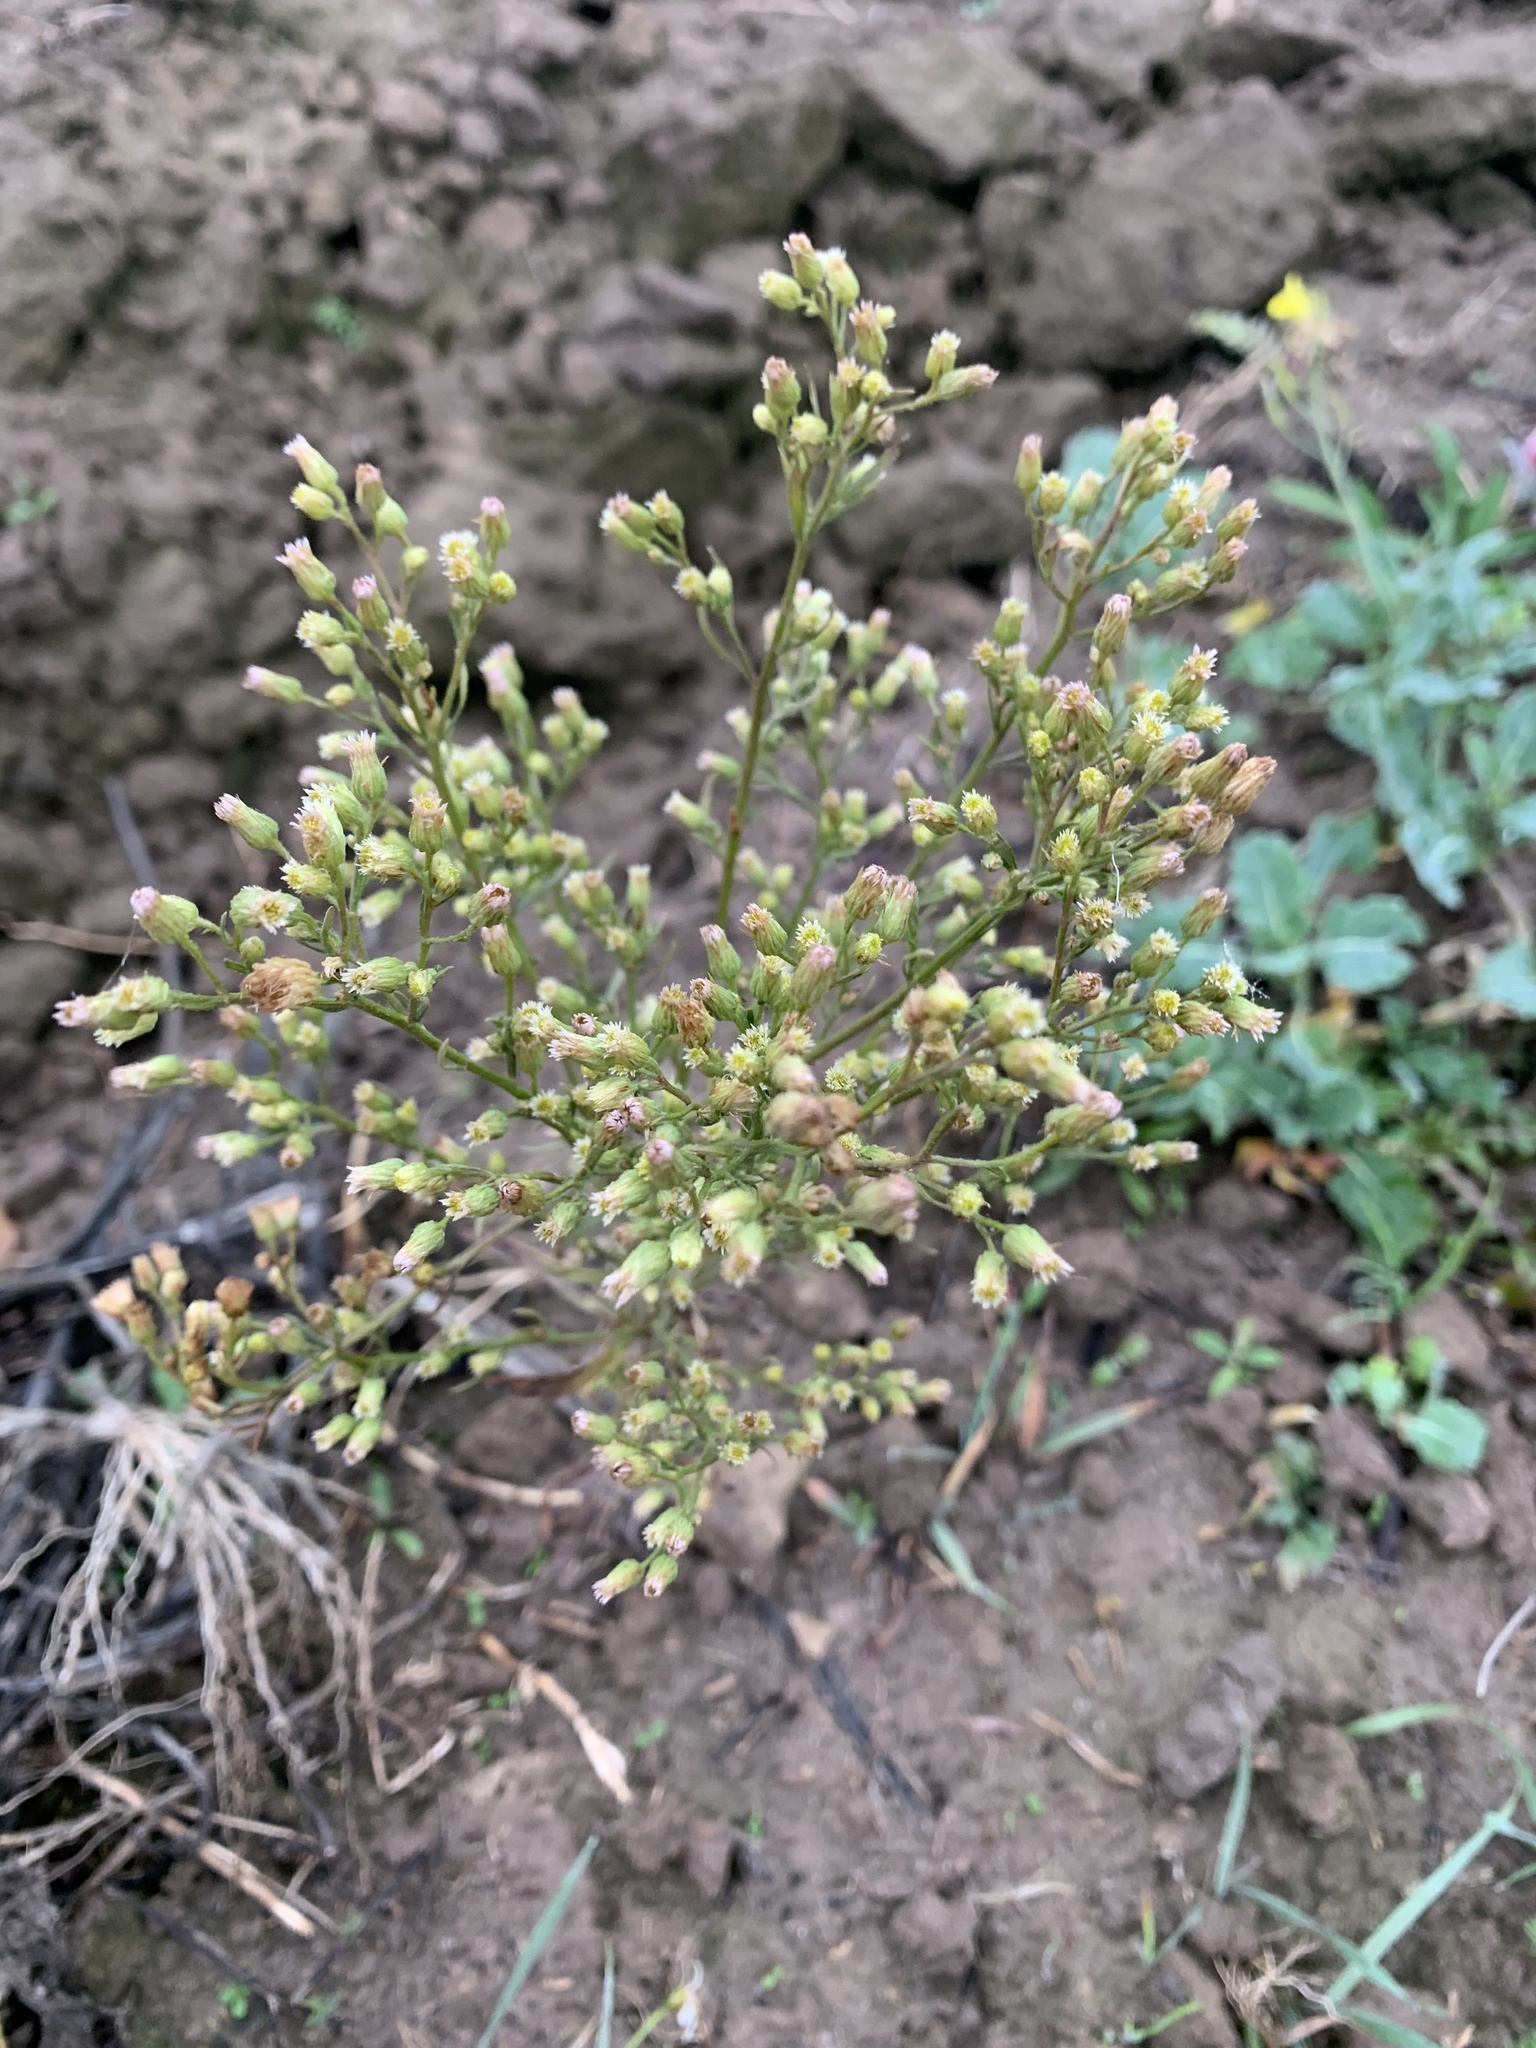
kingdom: Plantae
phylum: Tracheophyta
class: Magnoliopsida
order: Asterales
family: Asteraceae
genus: Erigeron
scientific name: Erigeron canadensis
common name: Canadian fleabane
